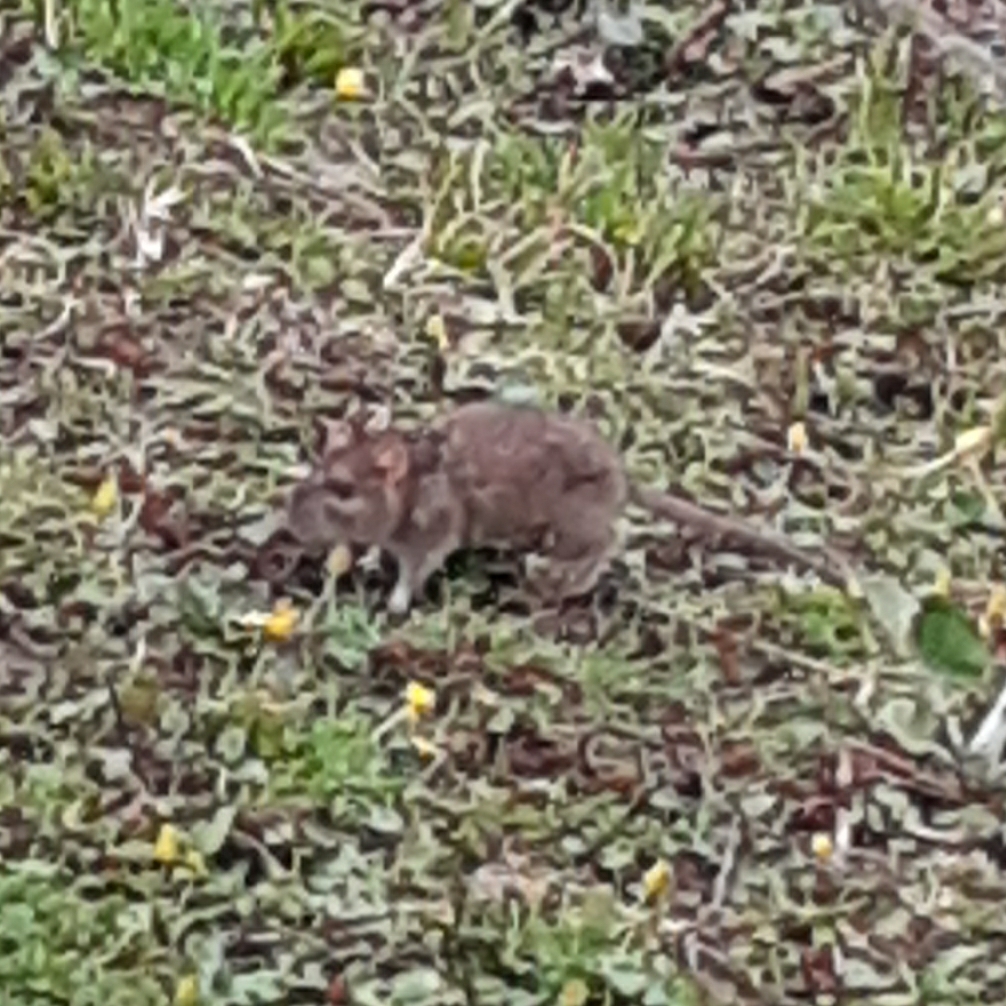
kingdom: Animalia
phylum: Chordata
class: Mammalia
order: Rodentia
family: Muridae
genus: Rattus
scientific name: Rattus norvegicus
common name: Brown rat
